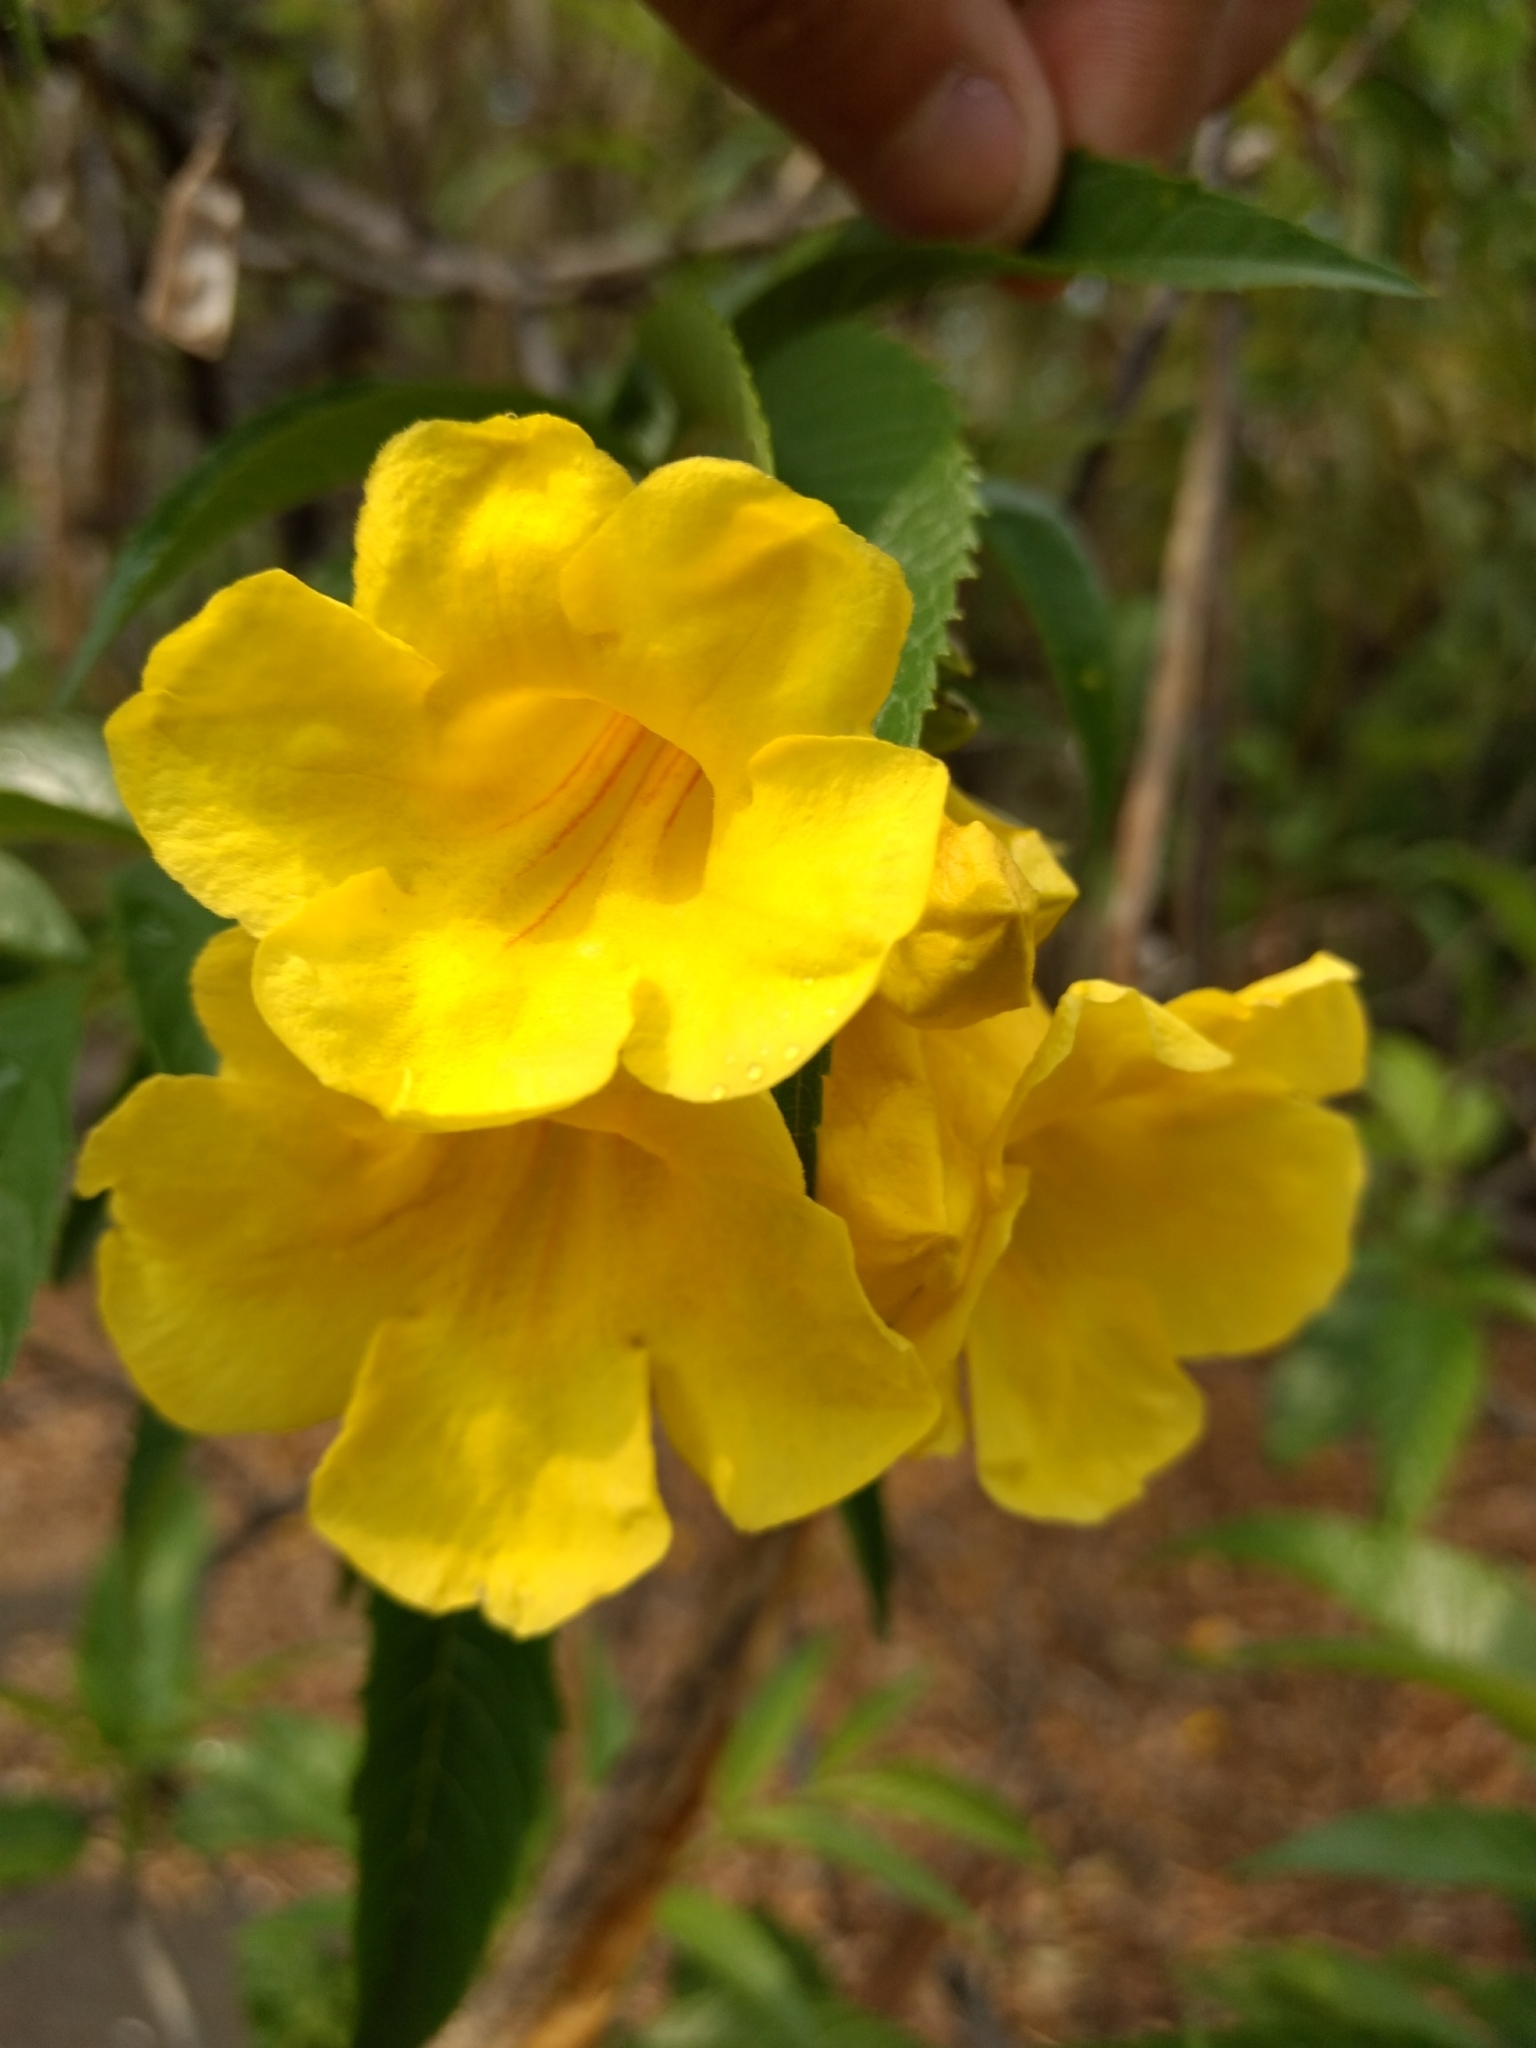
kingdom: Plantae
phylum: Tracheophyta
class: Magnoliopsida
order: Lamiales
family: Bignoniaceae
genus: Tecoma
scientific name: Tecoma stans
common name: Yellow trumpetbush
